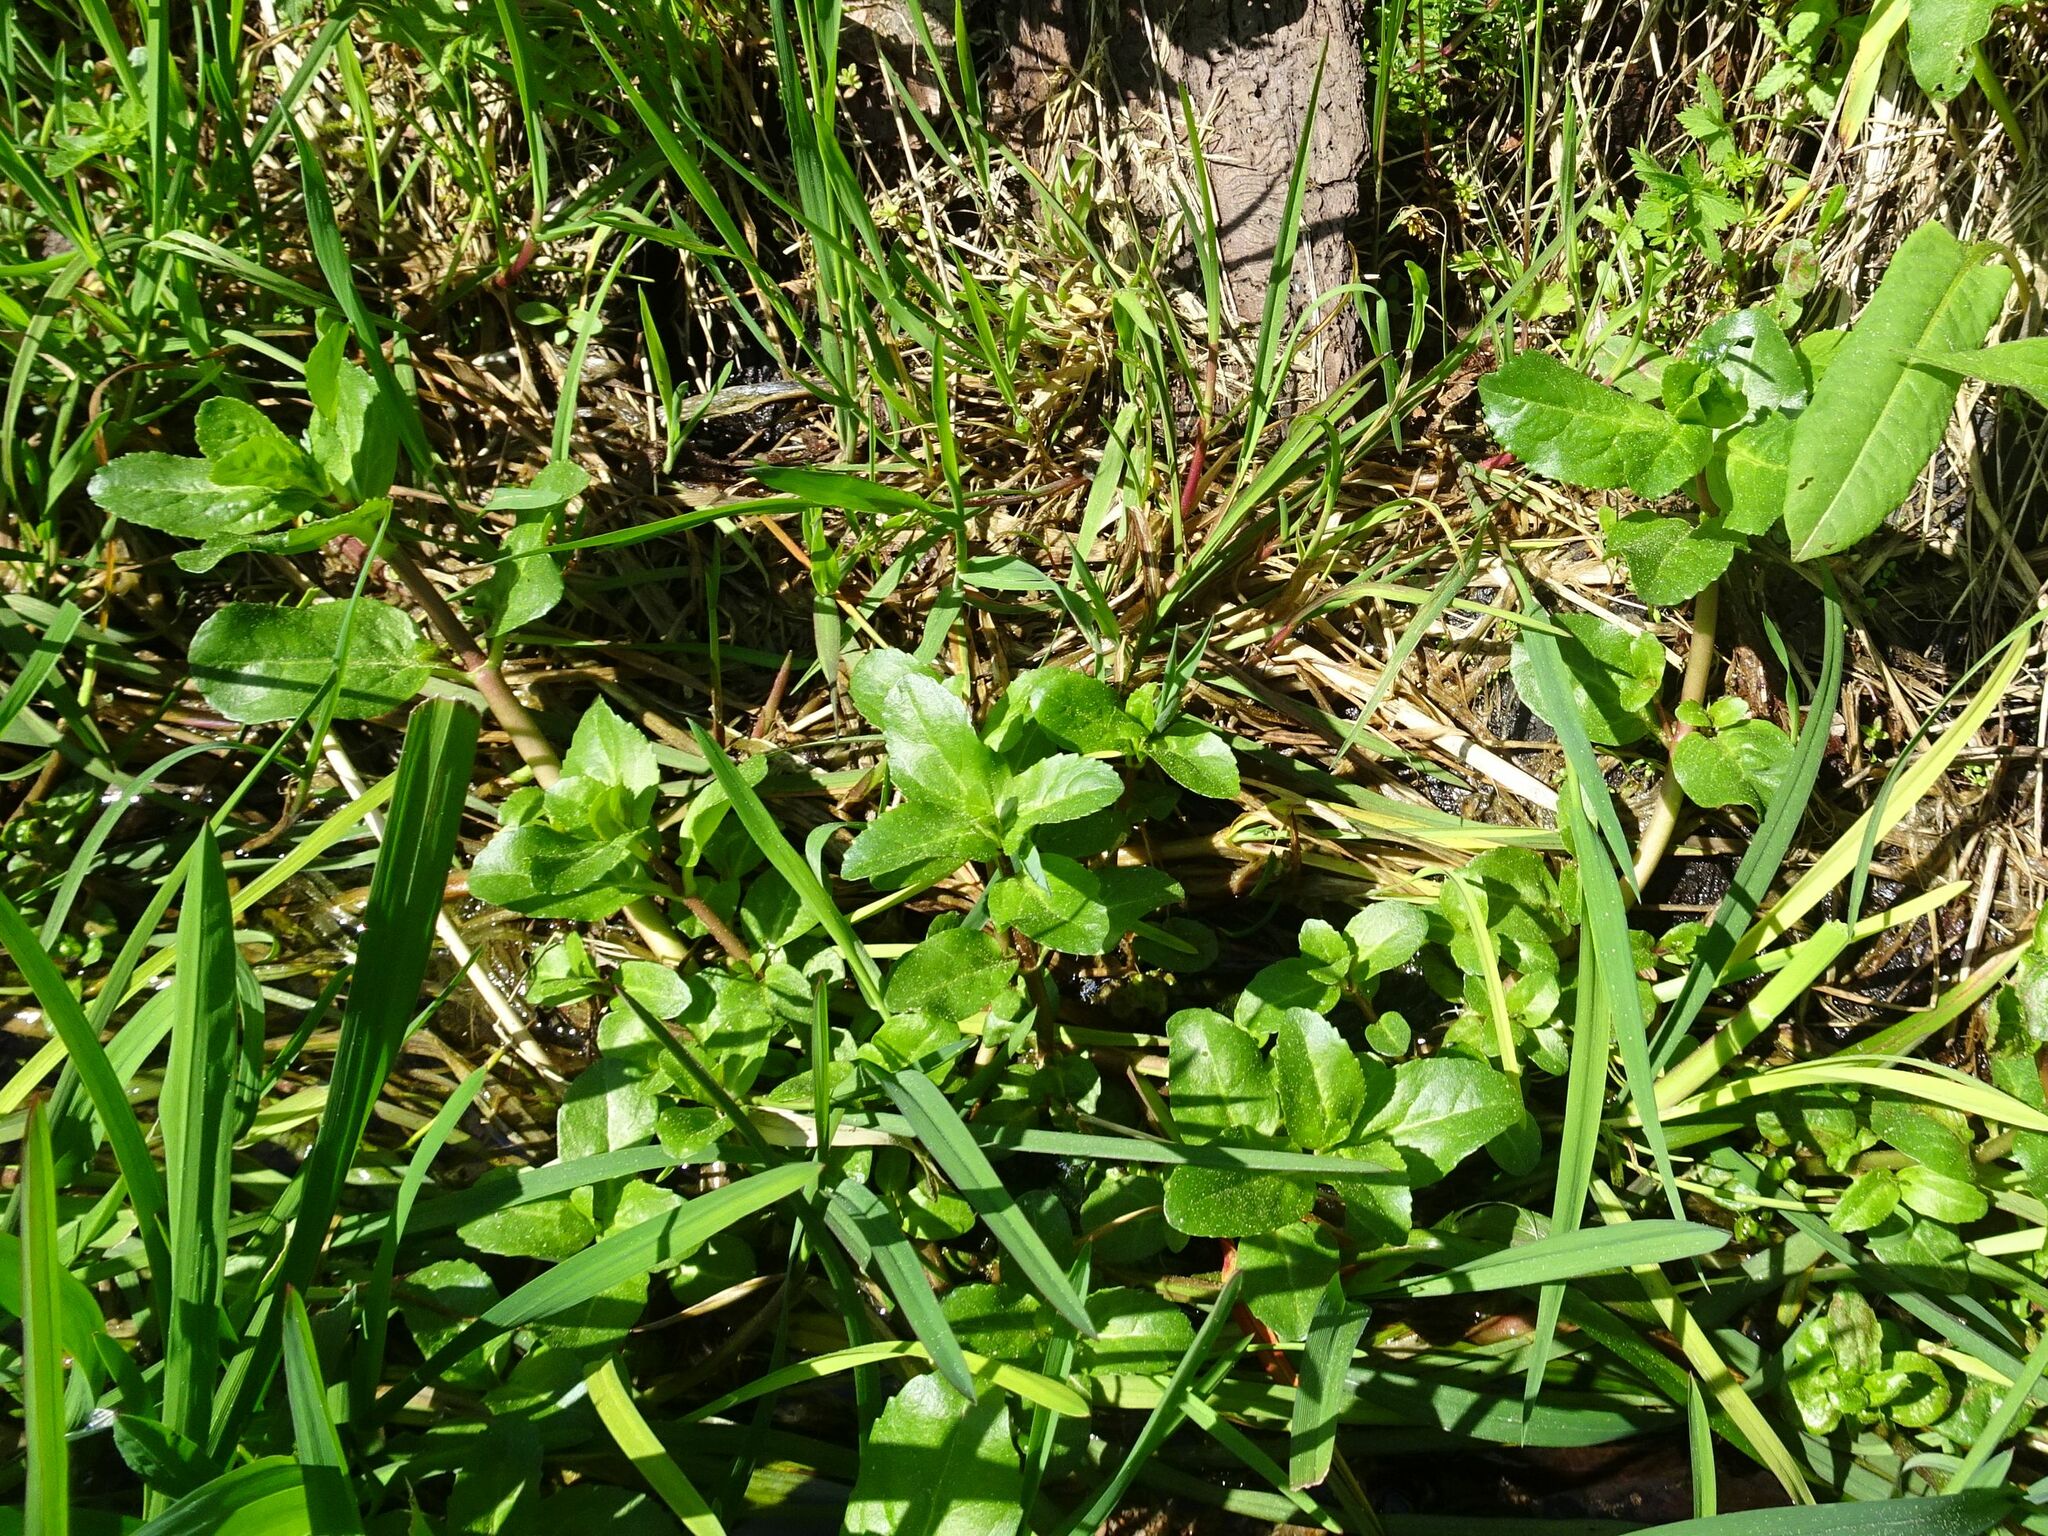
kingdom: Plantae
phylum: Tracheophyta
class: Magnoliopsida
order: Lamiales
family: Plantaginaceae
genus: Veronica
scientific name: Veronica beccabunga
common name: Brooklime
